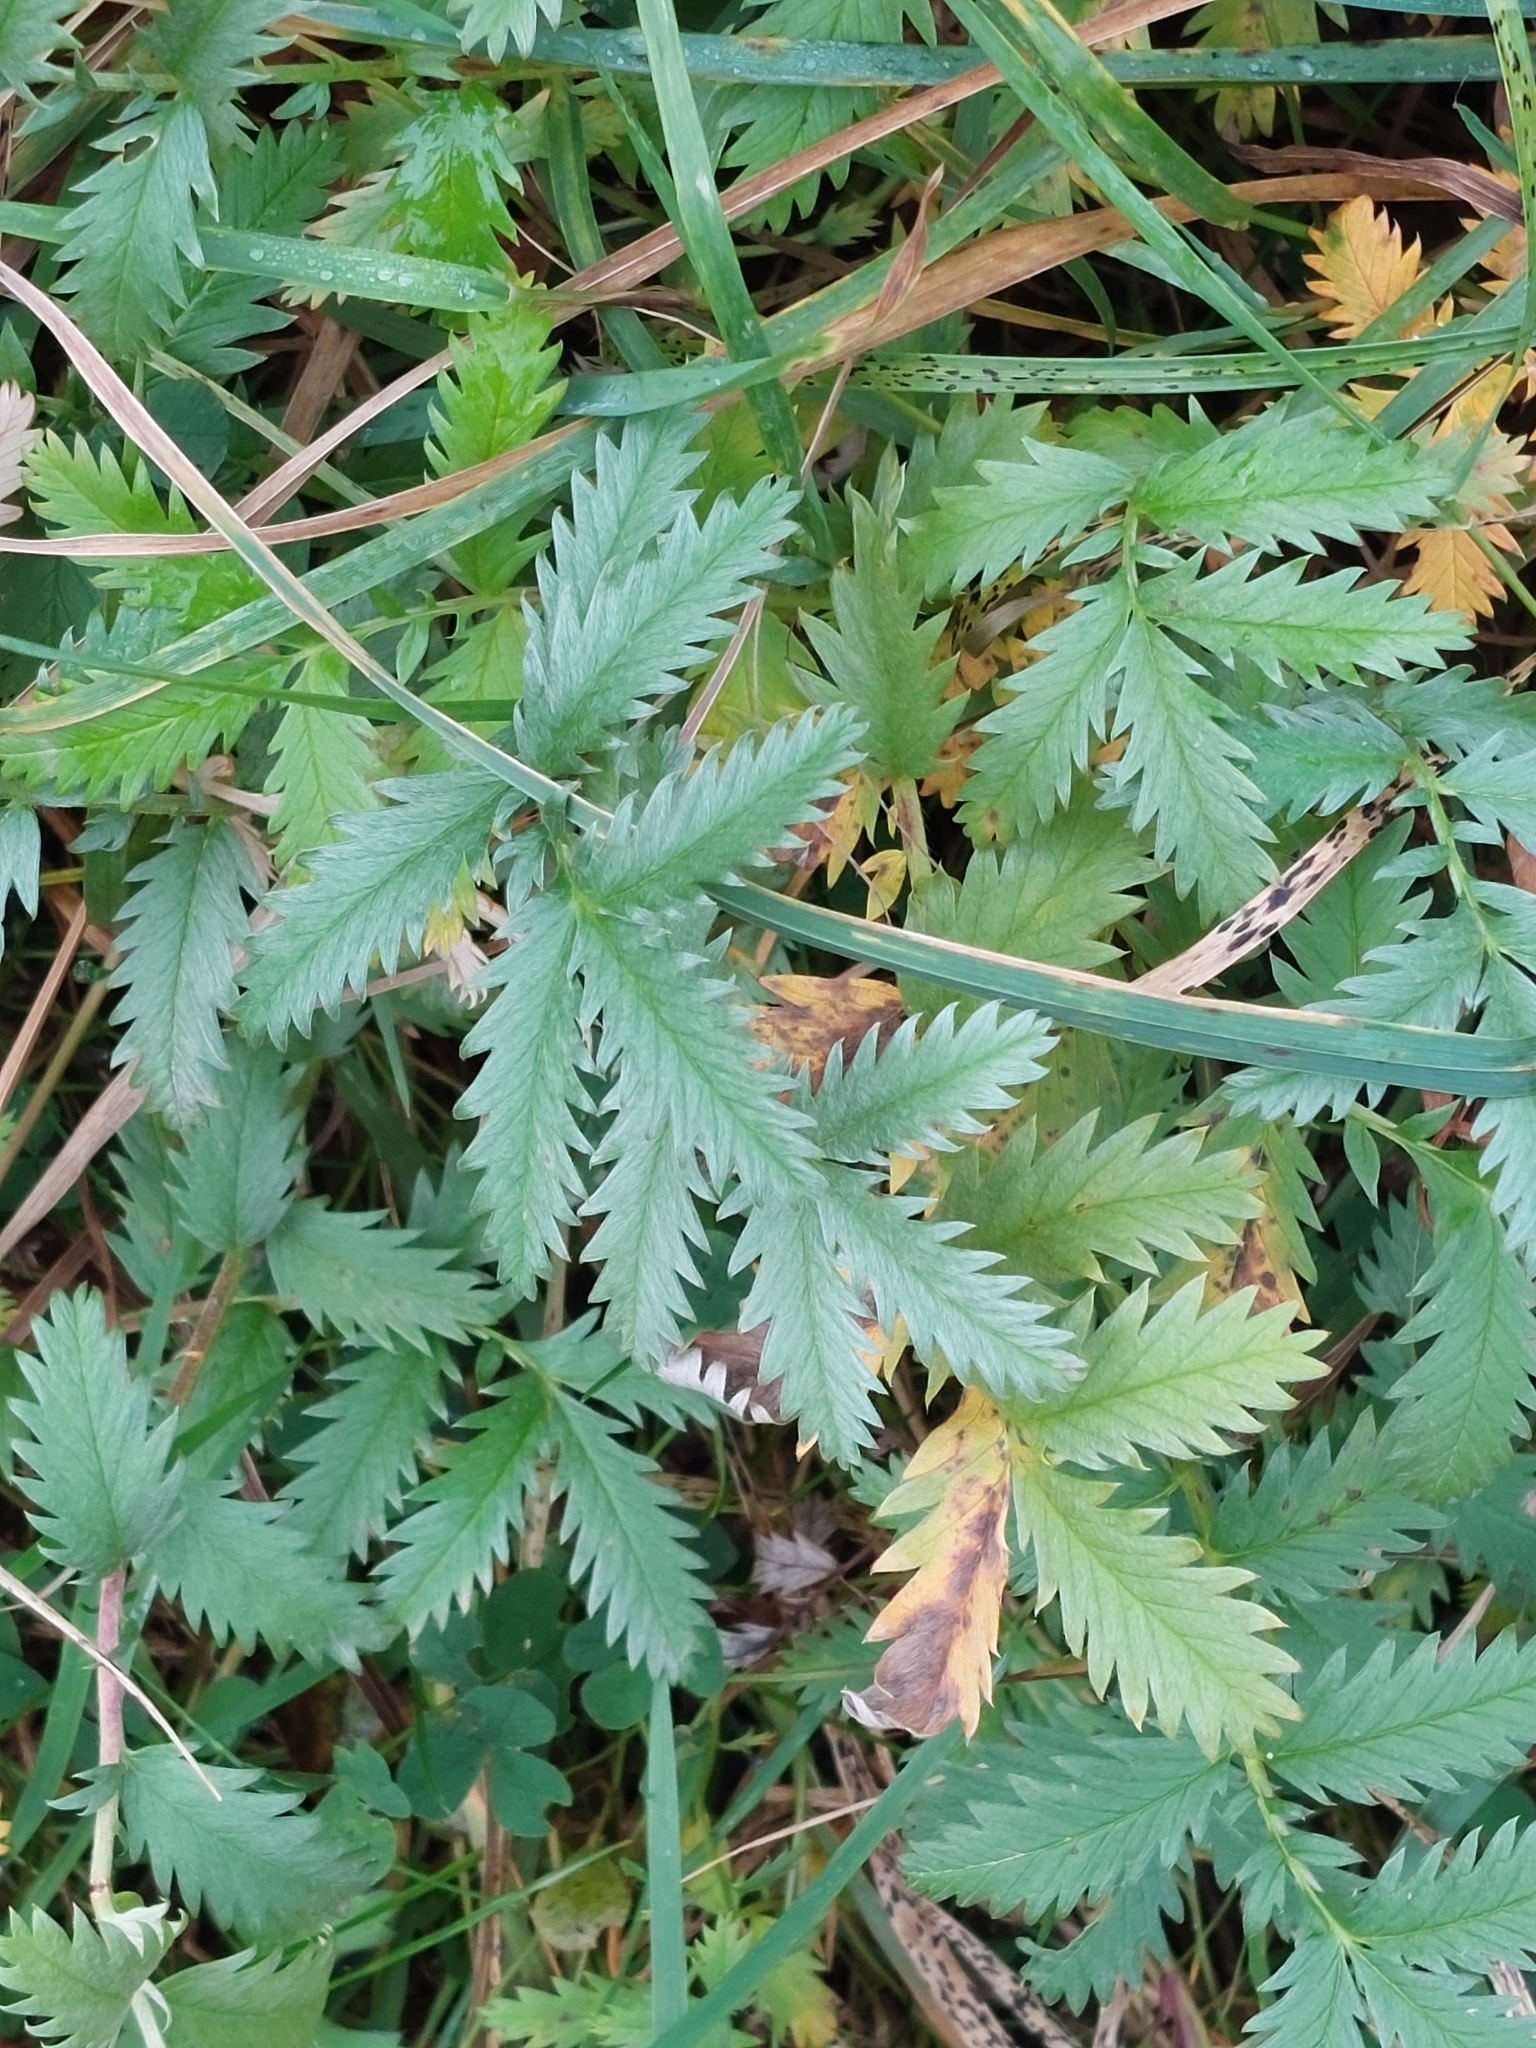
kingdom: Plantae
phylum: Tracheophyta
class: Magnoliopsida
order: Rosales
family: Rosaceae
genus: Argentina
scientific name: Argentina anserina
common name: Common silverweed
